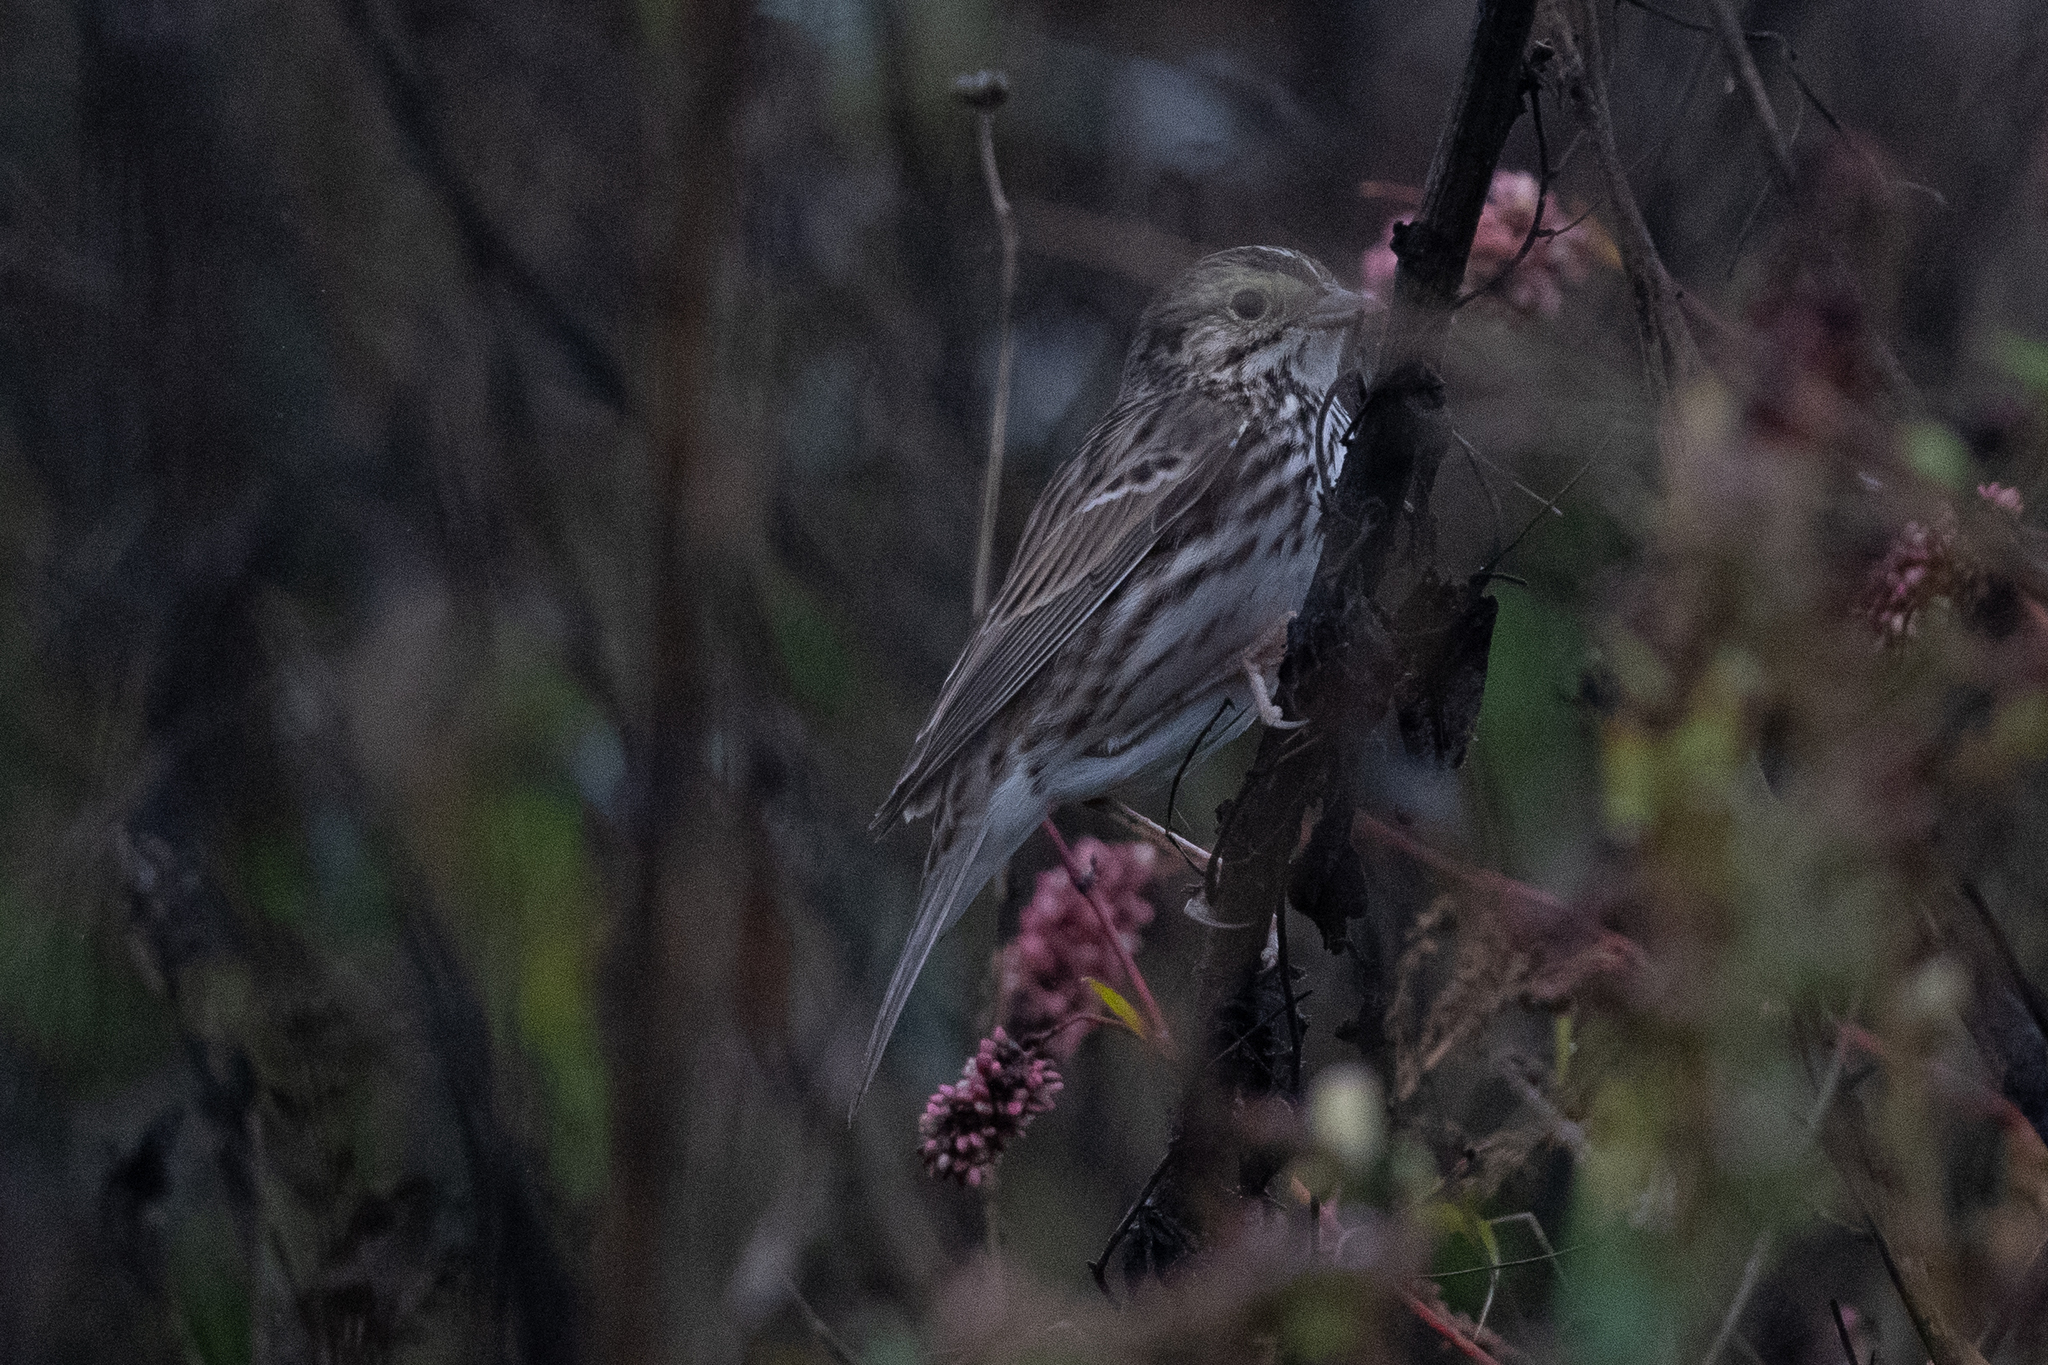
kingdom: Animalia
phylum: Chordata
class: Aves
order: Passeriformes
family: Passerellidae
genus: Passerculus
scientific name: Passerculus sandwichensis
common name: Savannah sparrow
